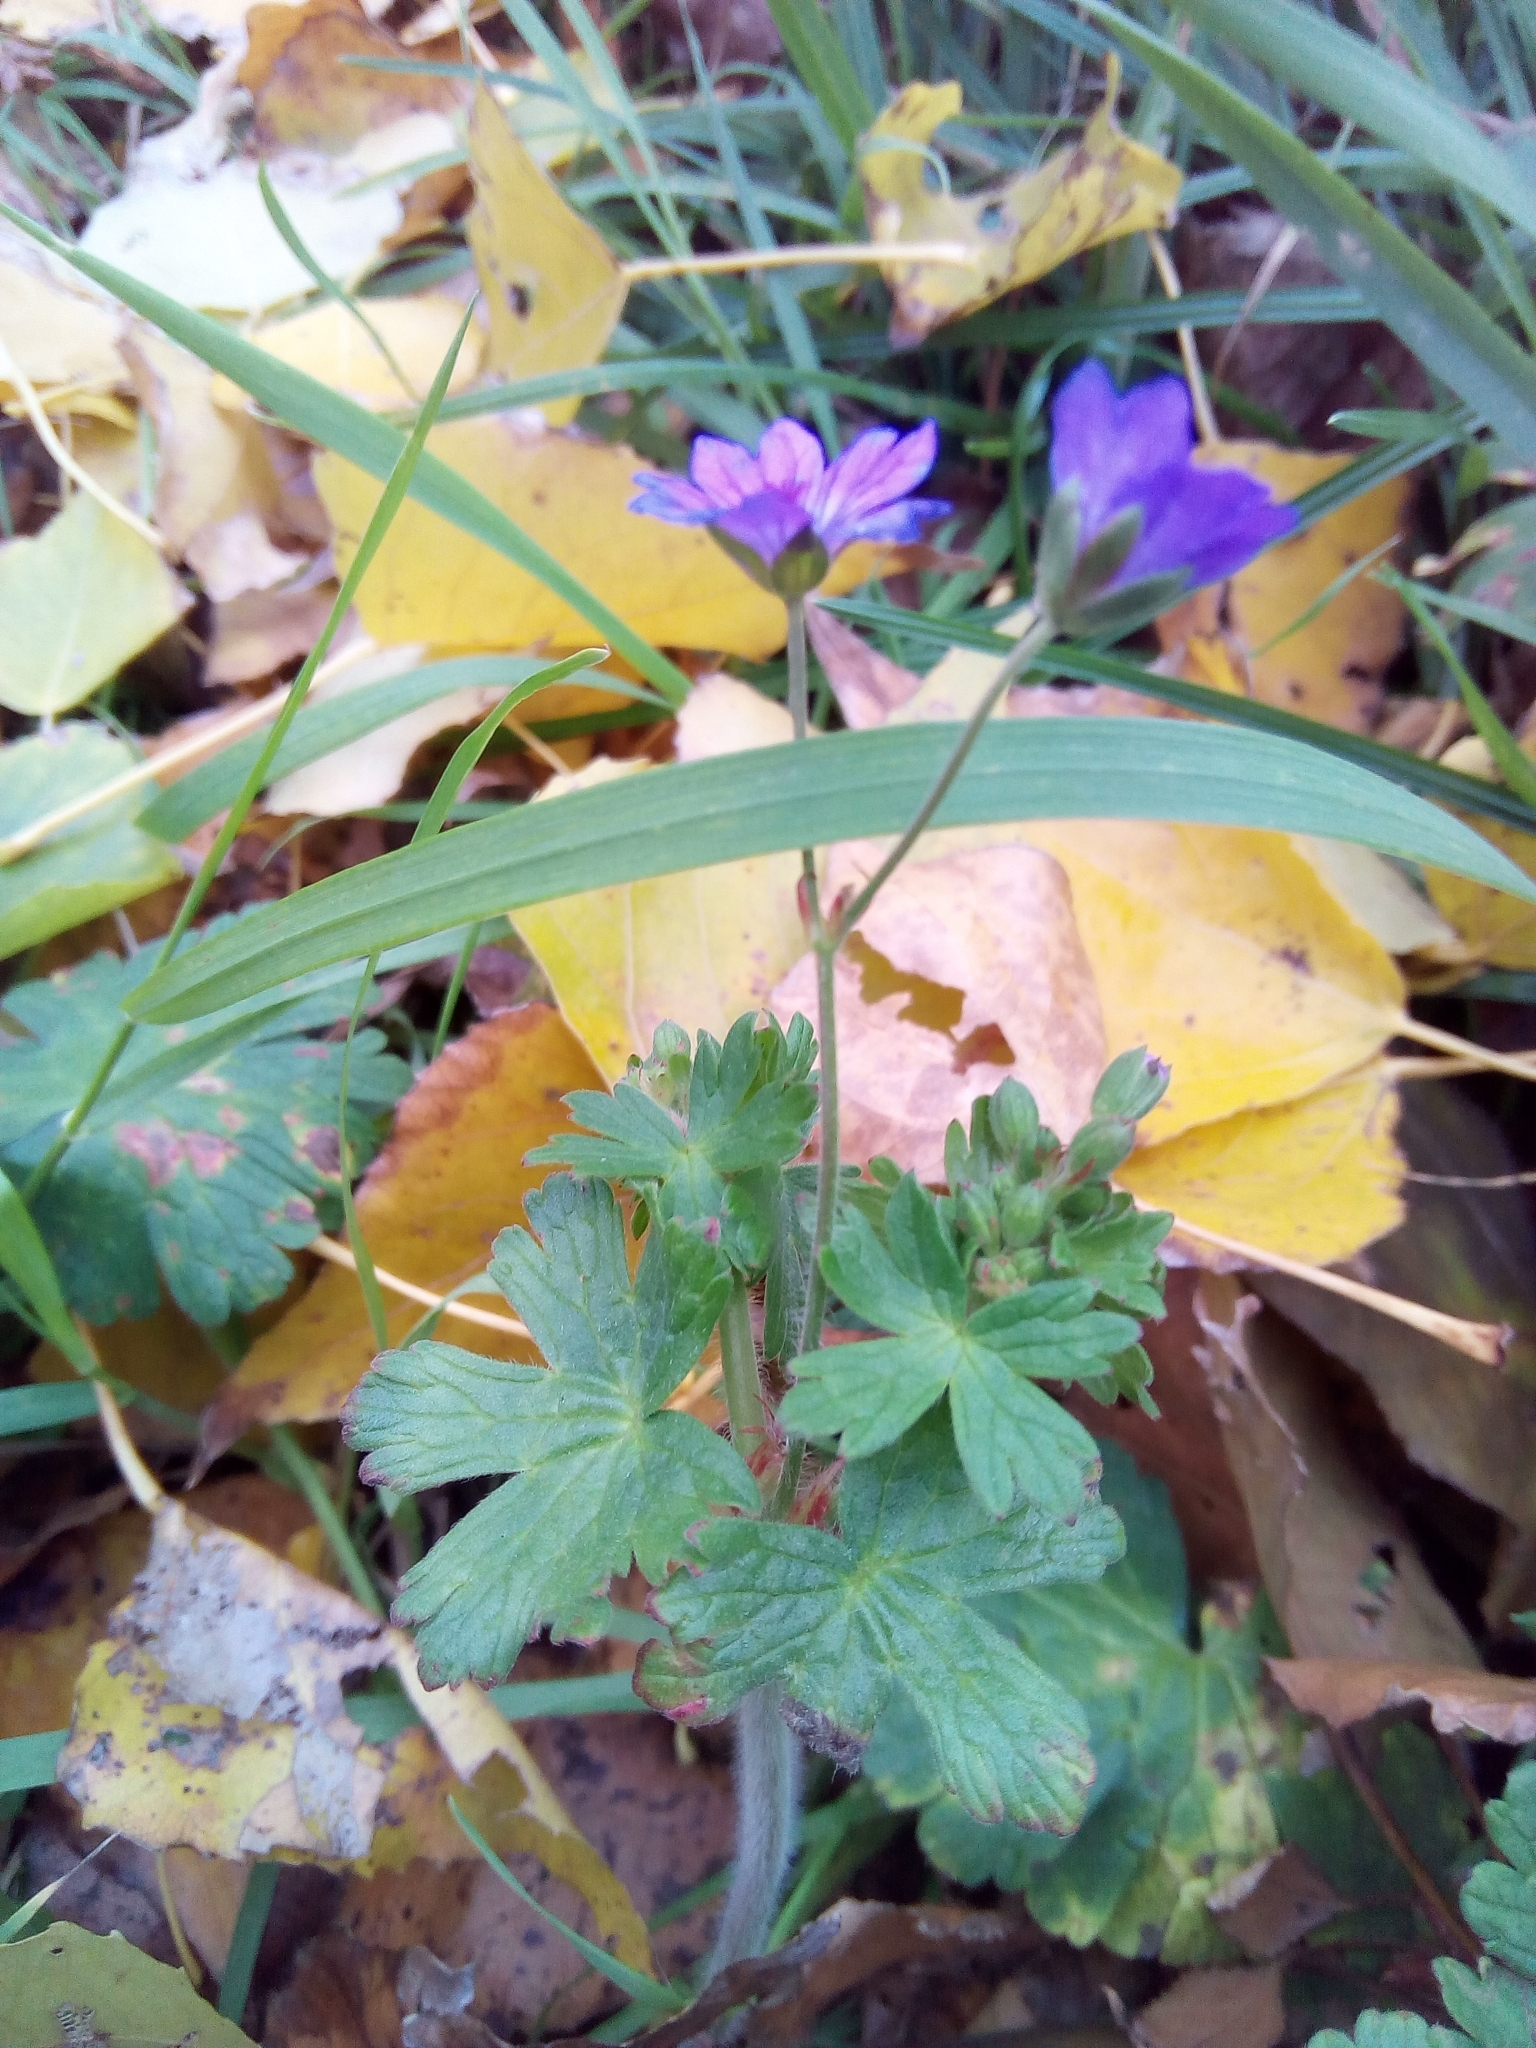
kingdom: Plantae
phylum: Tracheophyta
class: Magnoliopsida
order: Geraniales
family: Geraniaceae
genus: Geranium
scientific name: Geranium pyrenaicum
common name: Hedgerow crane's-bill
